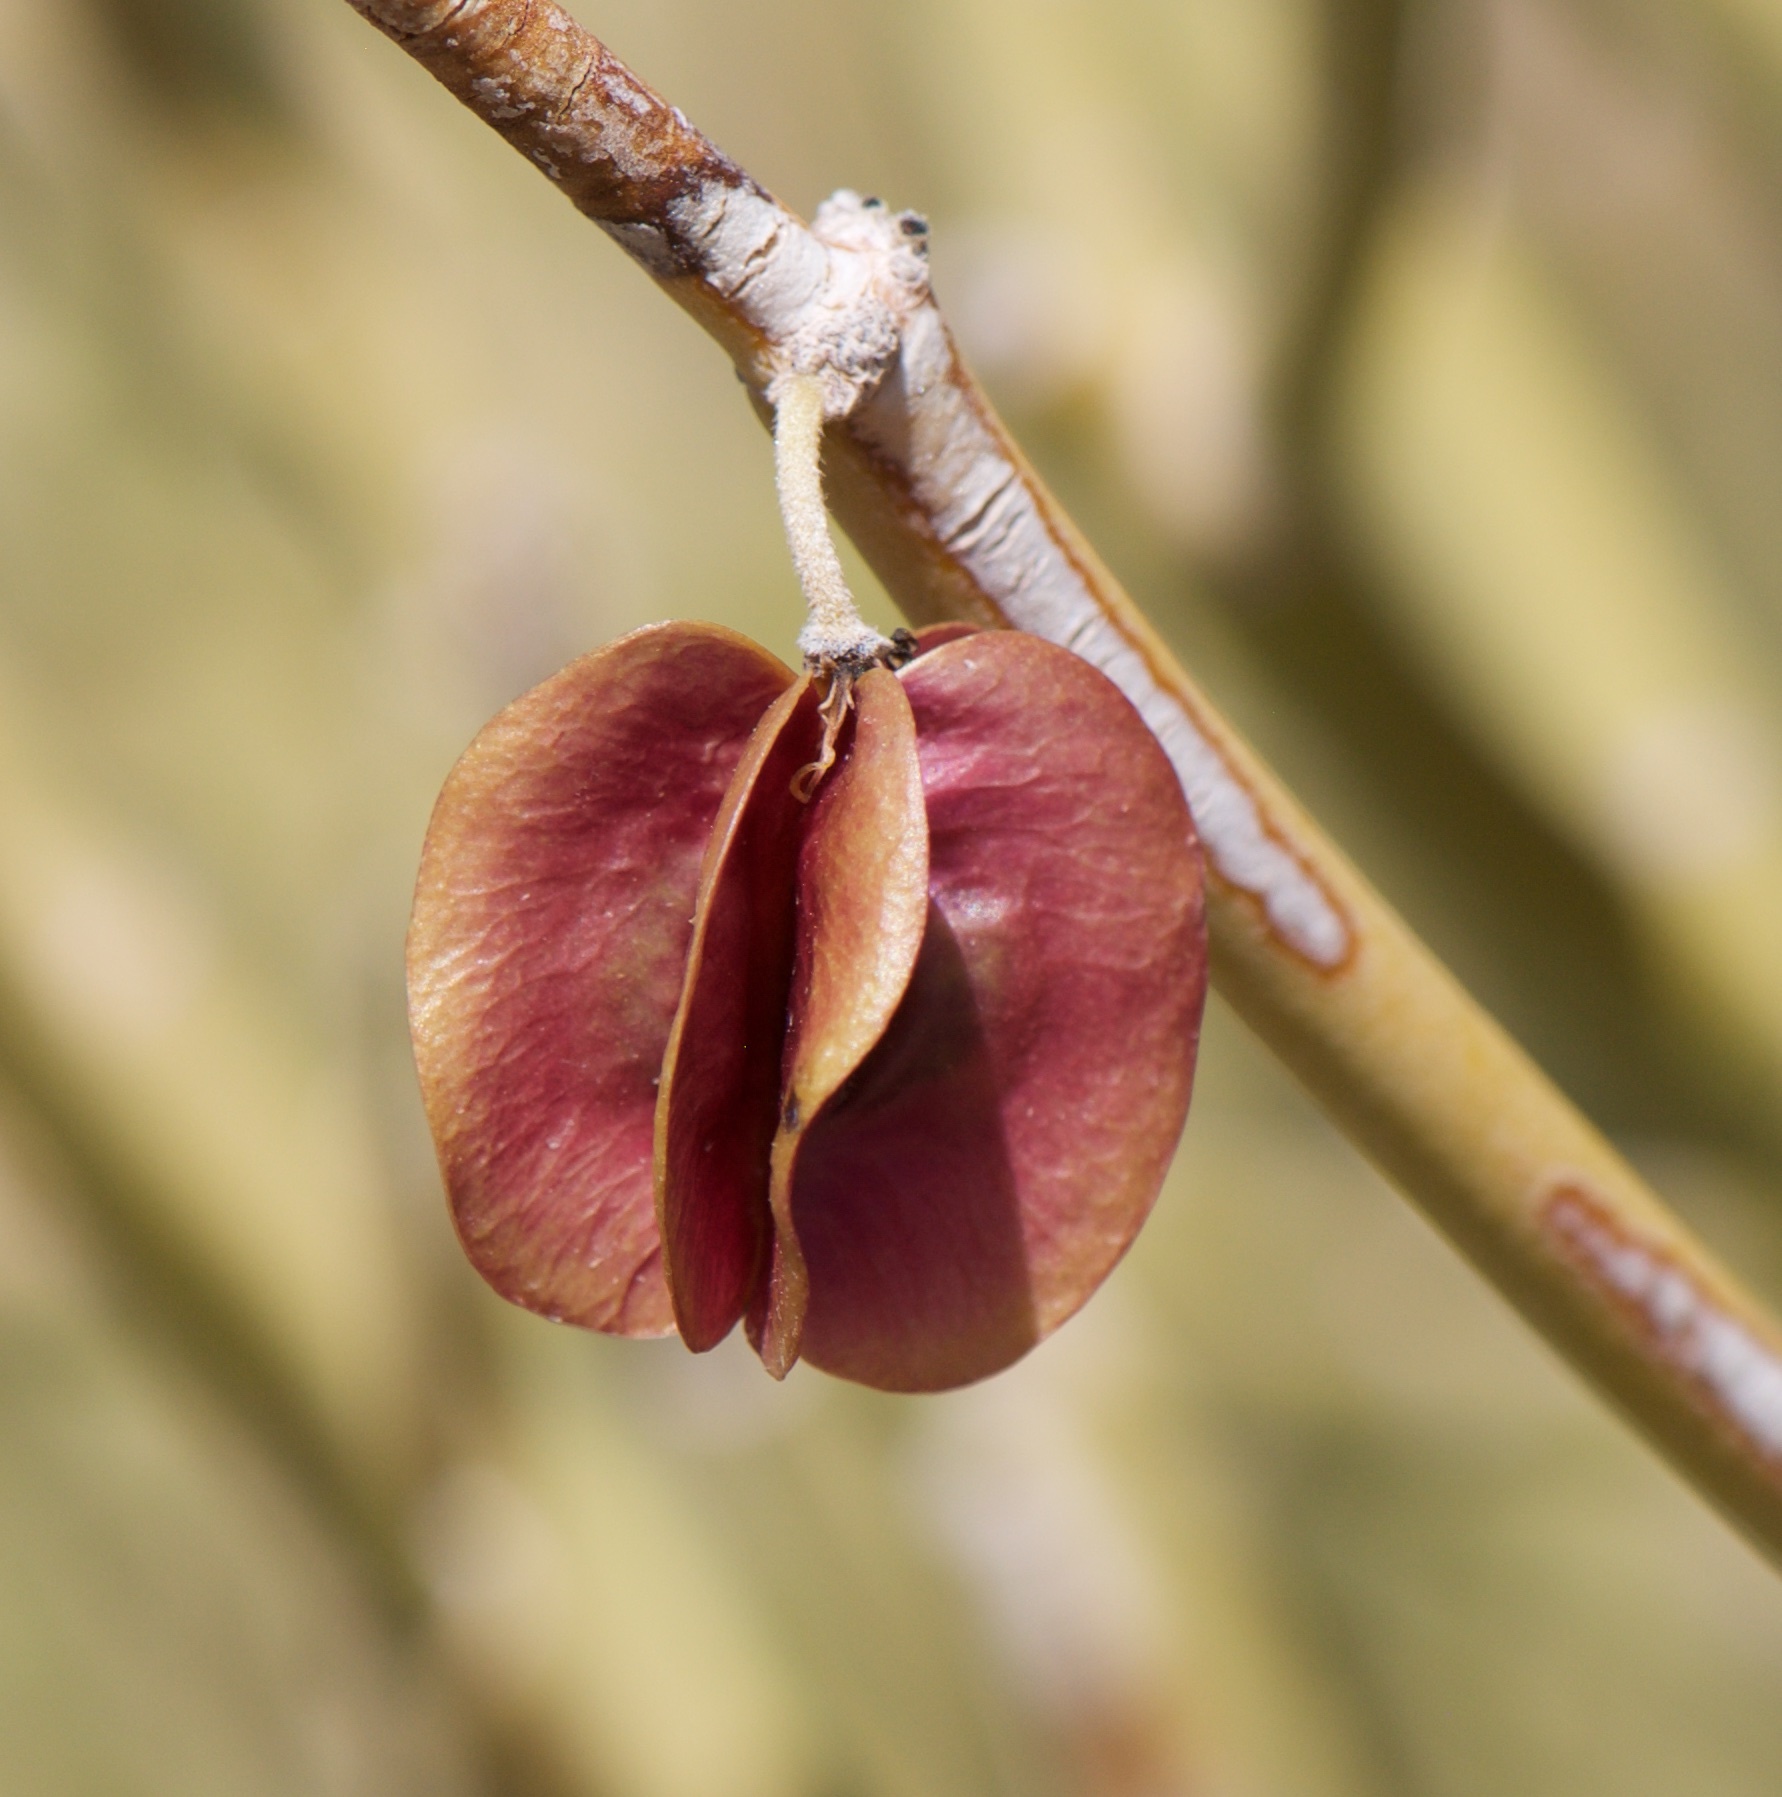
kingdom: Plantae
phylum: Tracheophyta
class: Magnoliopsida
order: Zygophyllales
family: Zygophyllaceae
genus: Bulnesia
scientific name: Bulnesia retama
